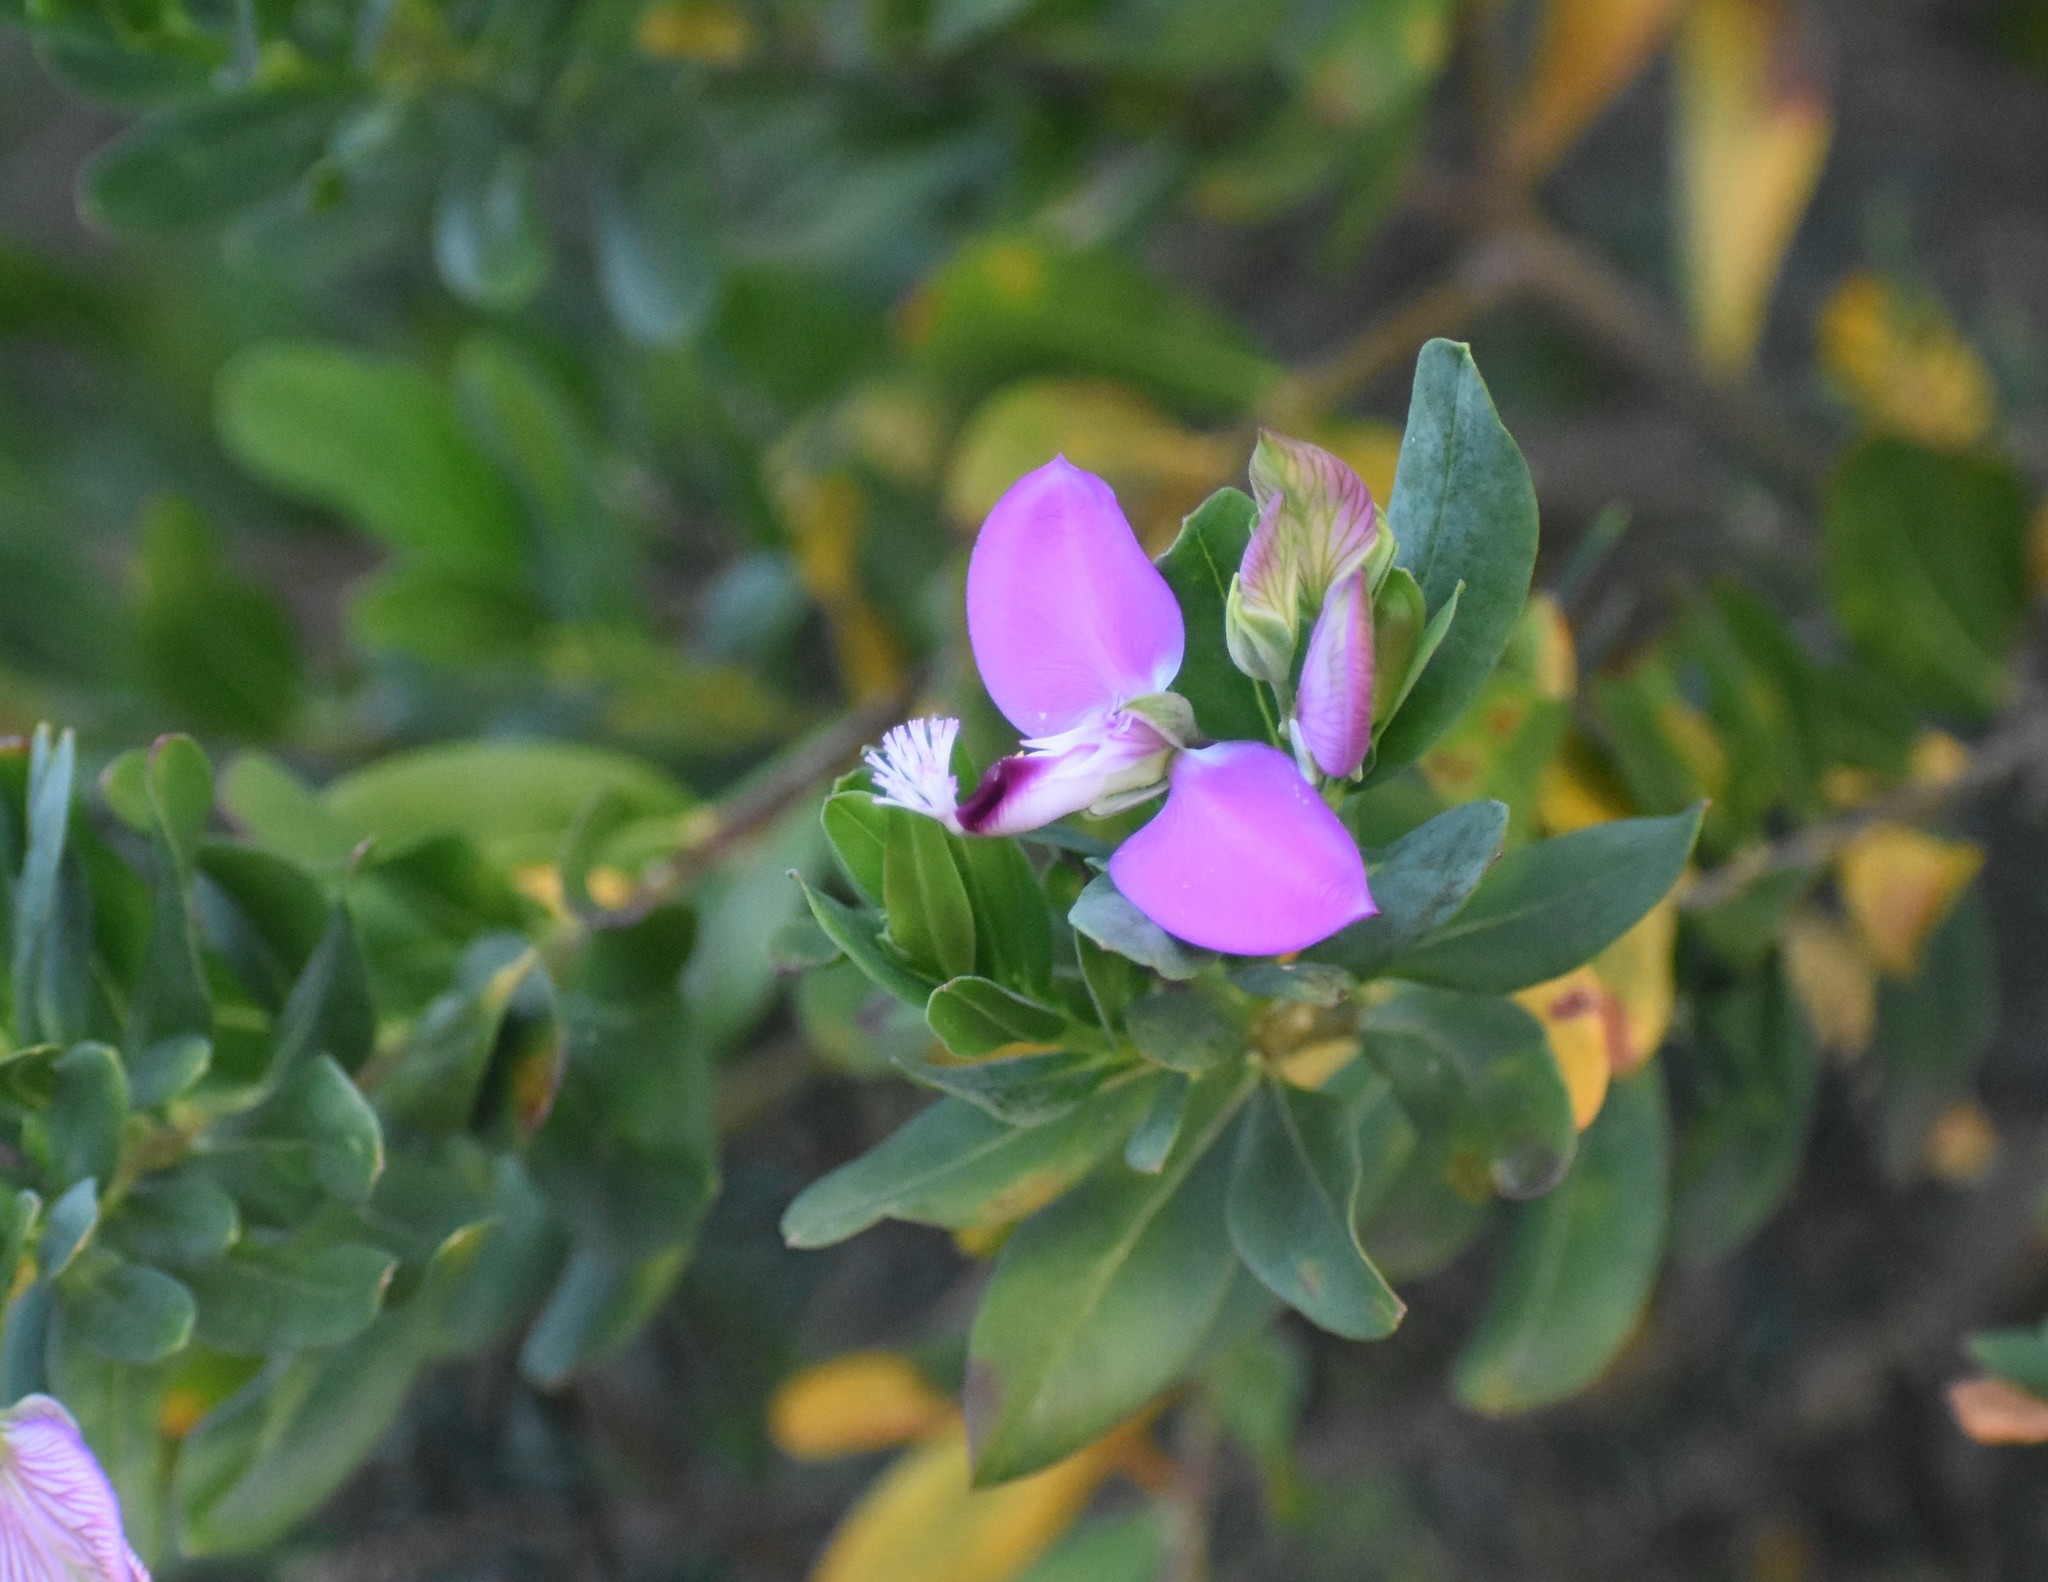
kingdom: Plantae
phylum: Tracheophyta
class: Magnoliopsida
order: Fabales
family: Polygalaceae
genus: Polygala
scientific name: Polygala myrtifolia
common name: Myrtle-leaf milkwort
